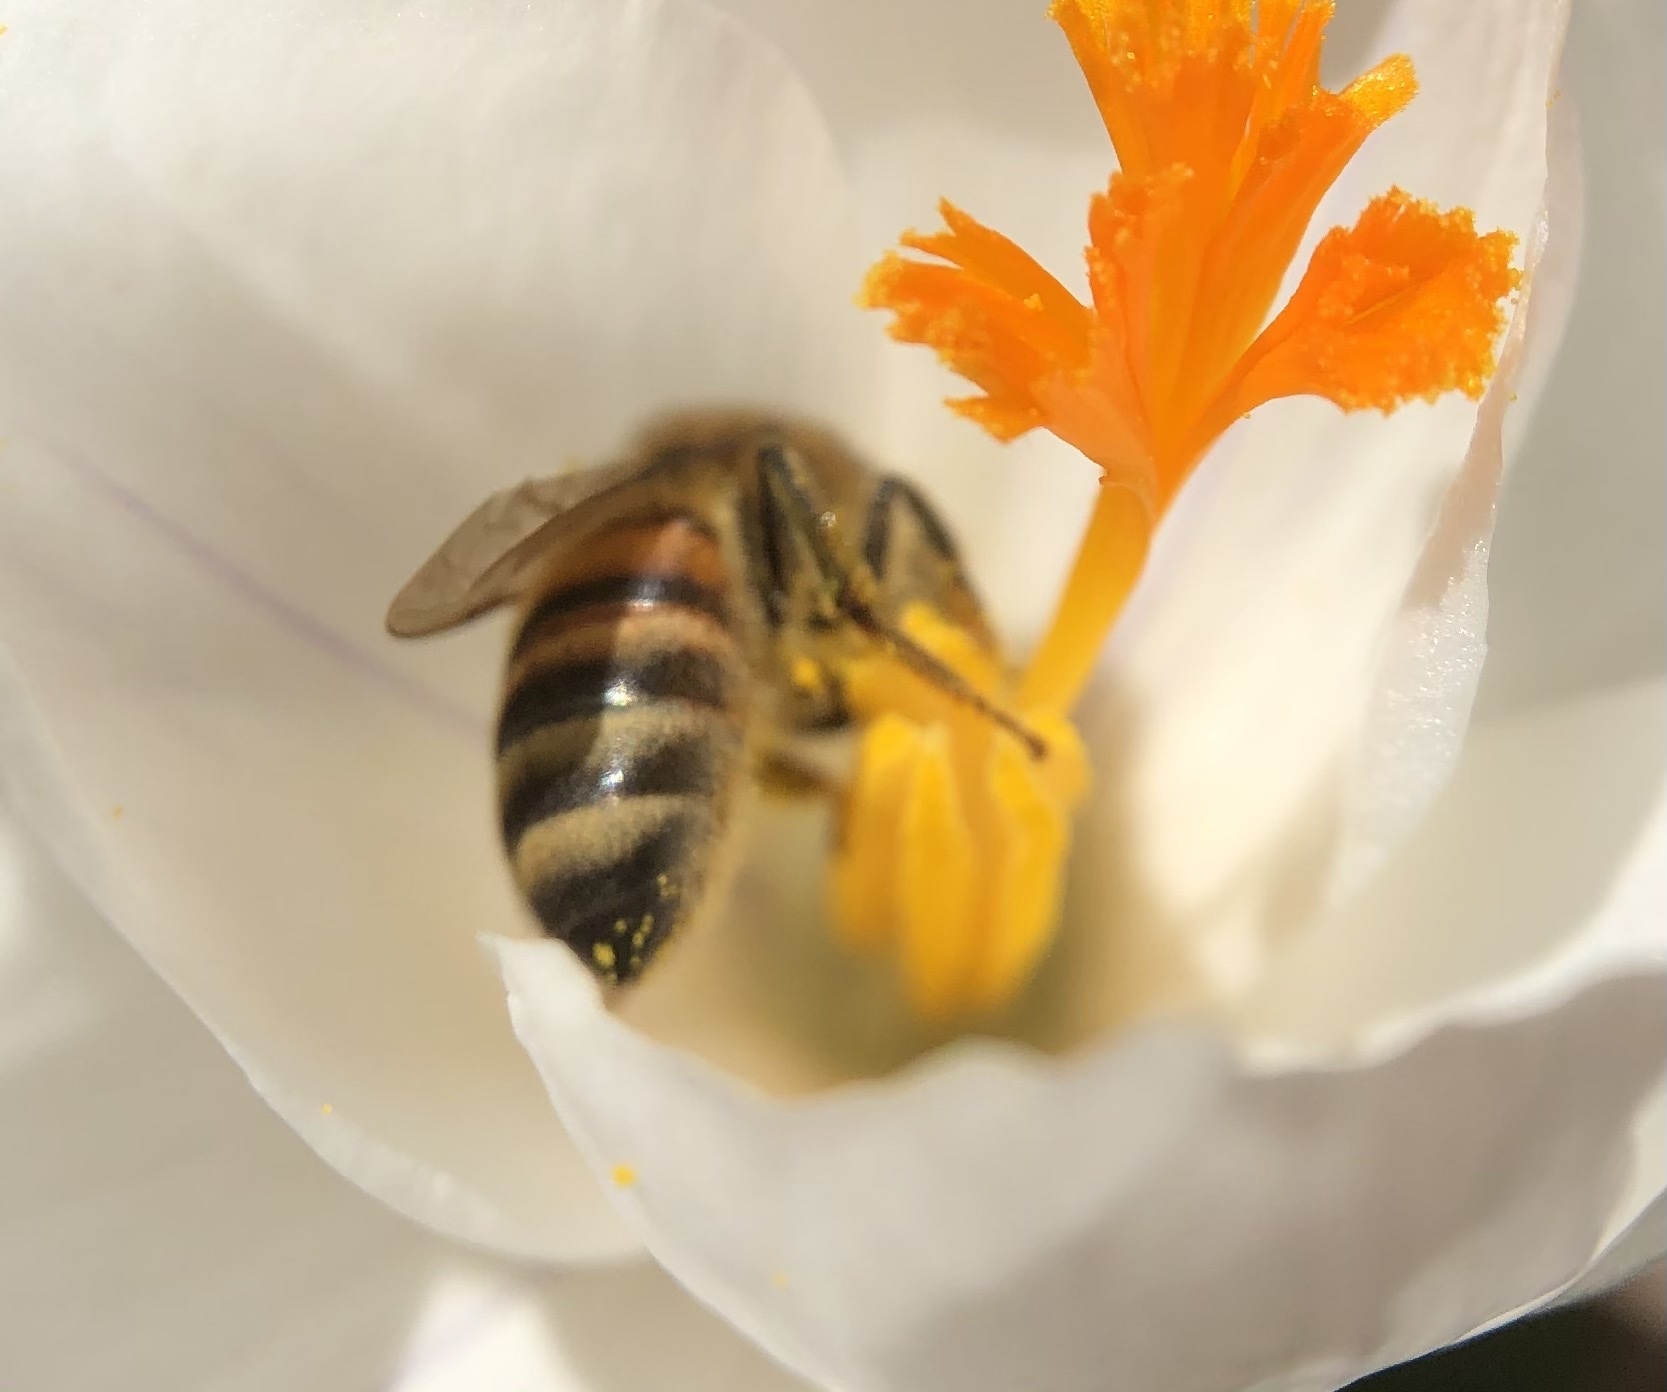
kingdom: Animalia
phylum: Arthropoda
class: Insecta
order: Hymenoptera
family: Apidae
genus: Apis
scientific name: Apis mellifera
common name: Honey bee
